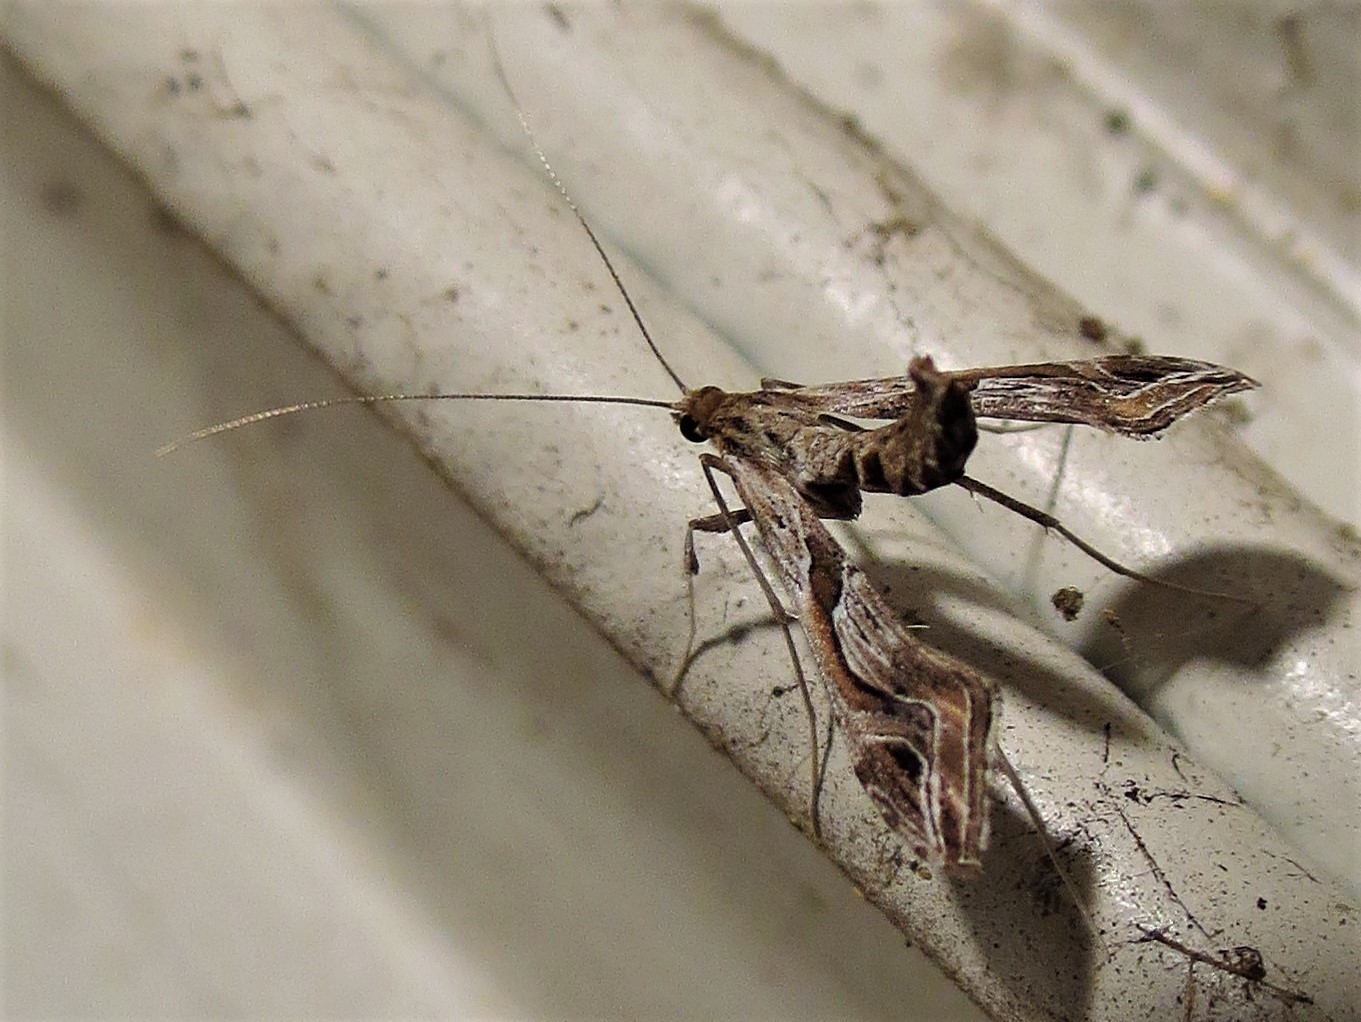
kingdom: Animalia
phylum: Arthropoda
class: Insecta
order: Lepidoptera
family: Crambidae
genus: Lineodes
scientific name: Lineodes integra
